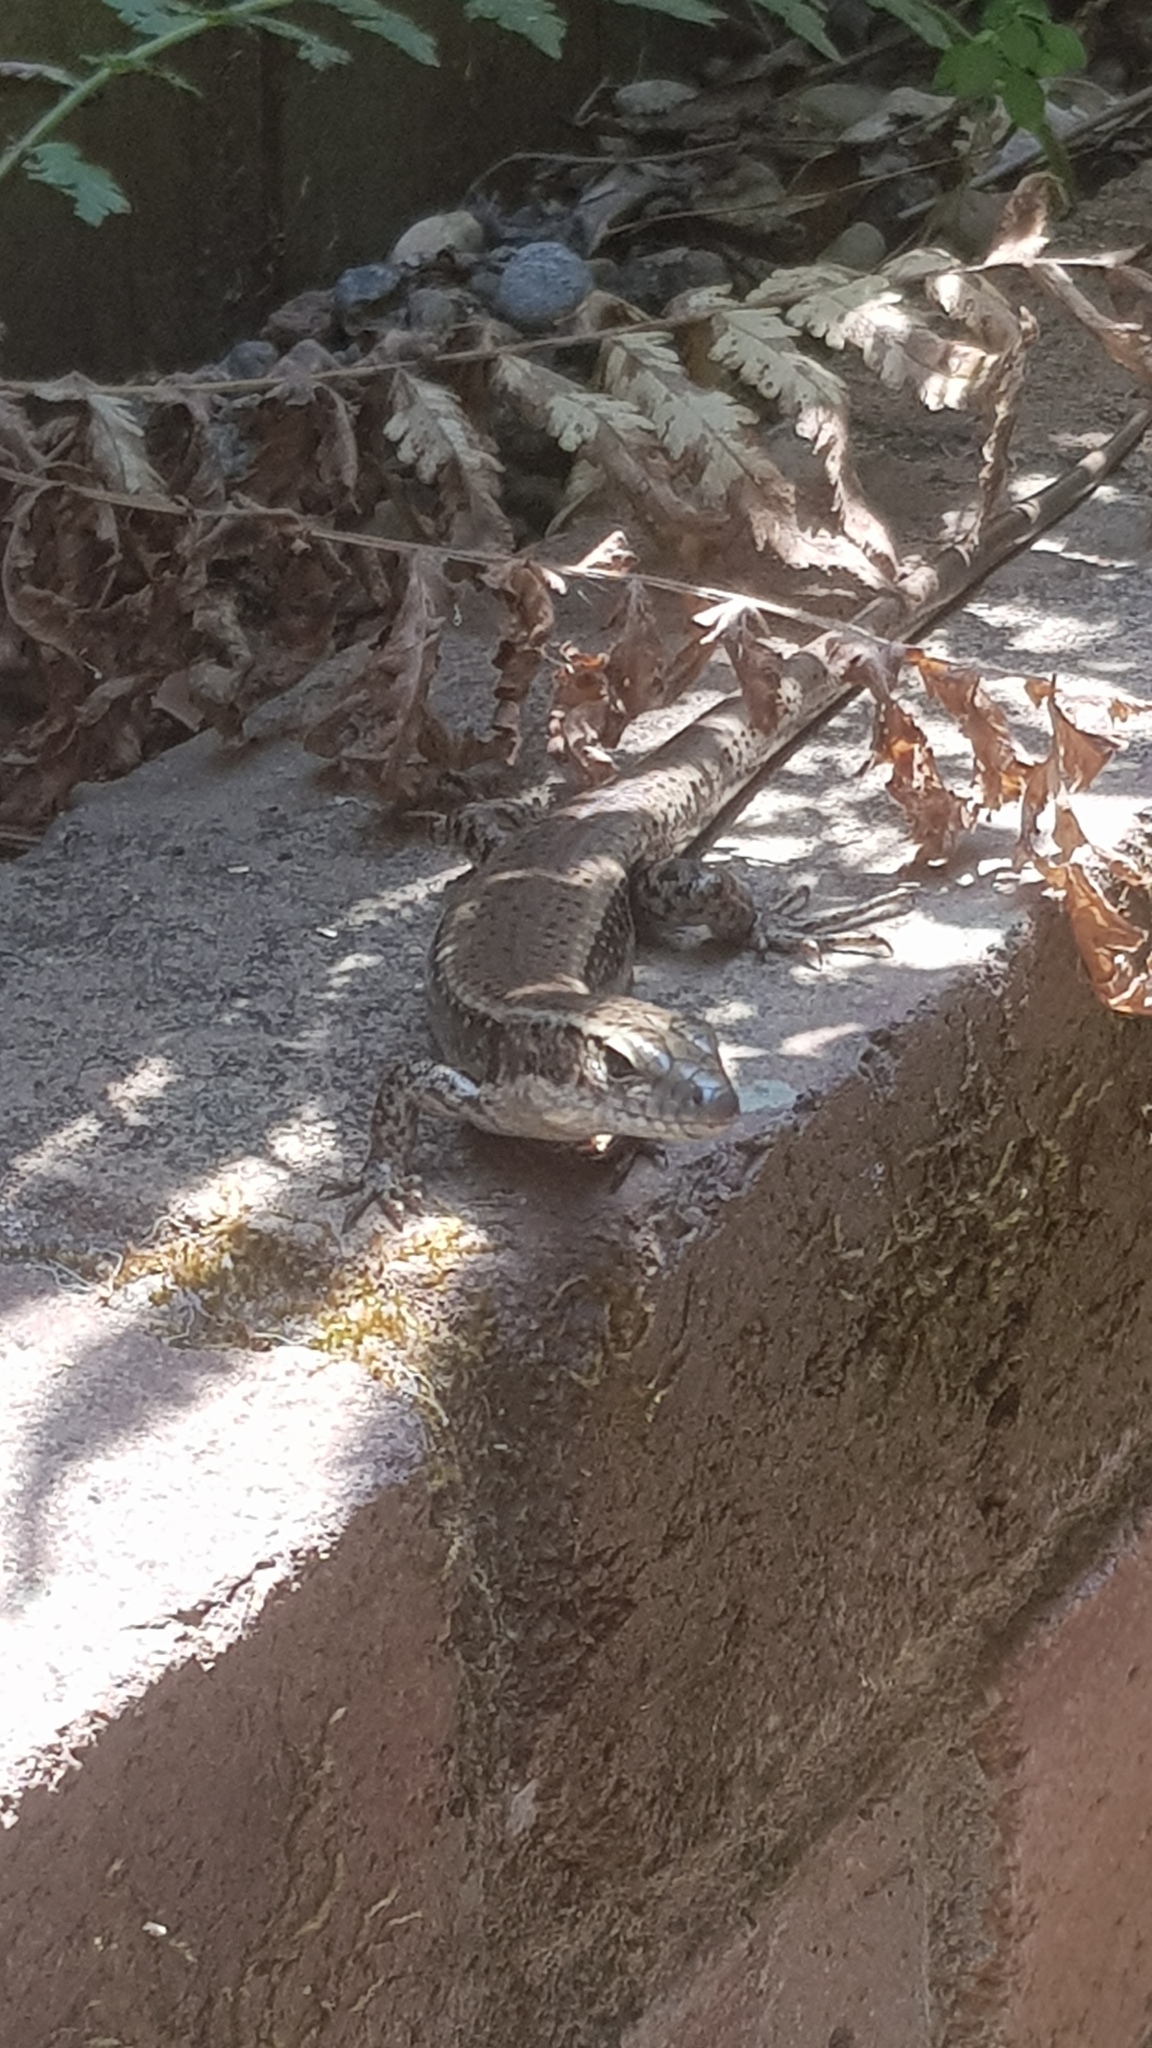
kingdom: Animalia
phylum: Chordata
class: Squamata
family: Scincidae
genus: Eulamprus
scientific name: Eulamprus quoyii
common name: Eastern water skink
